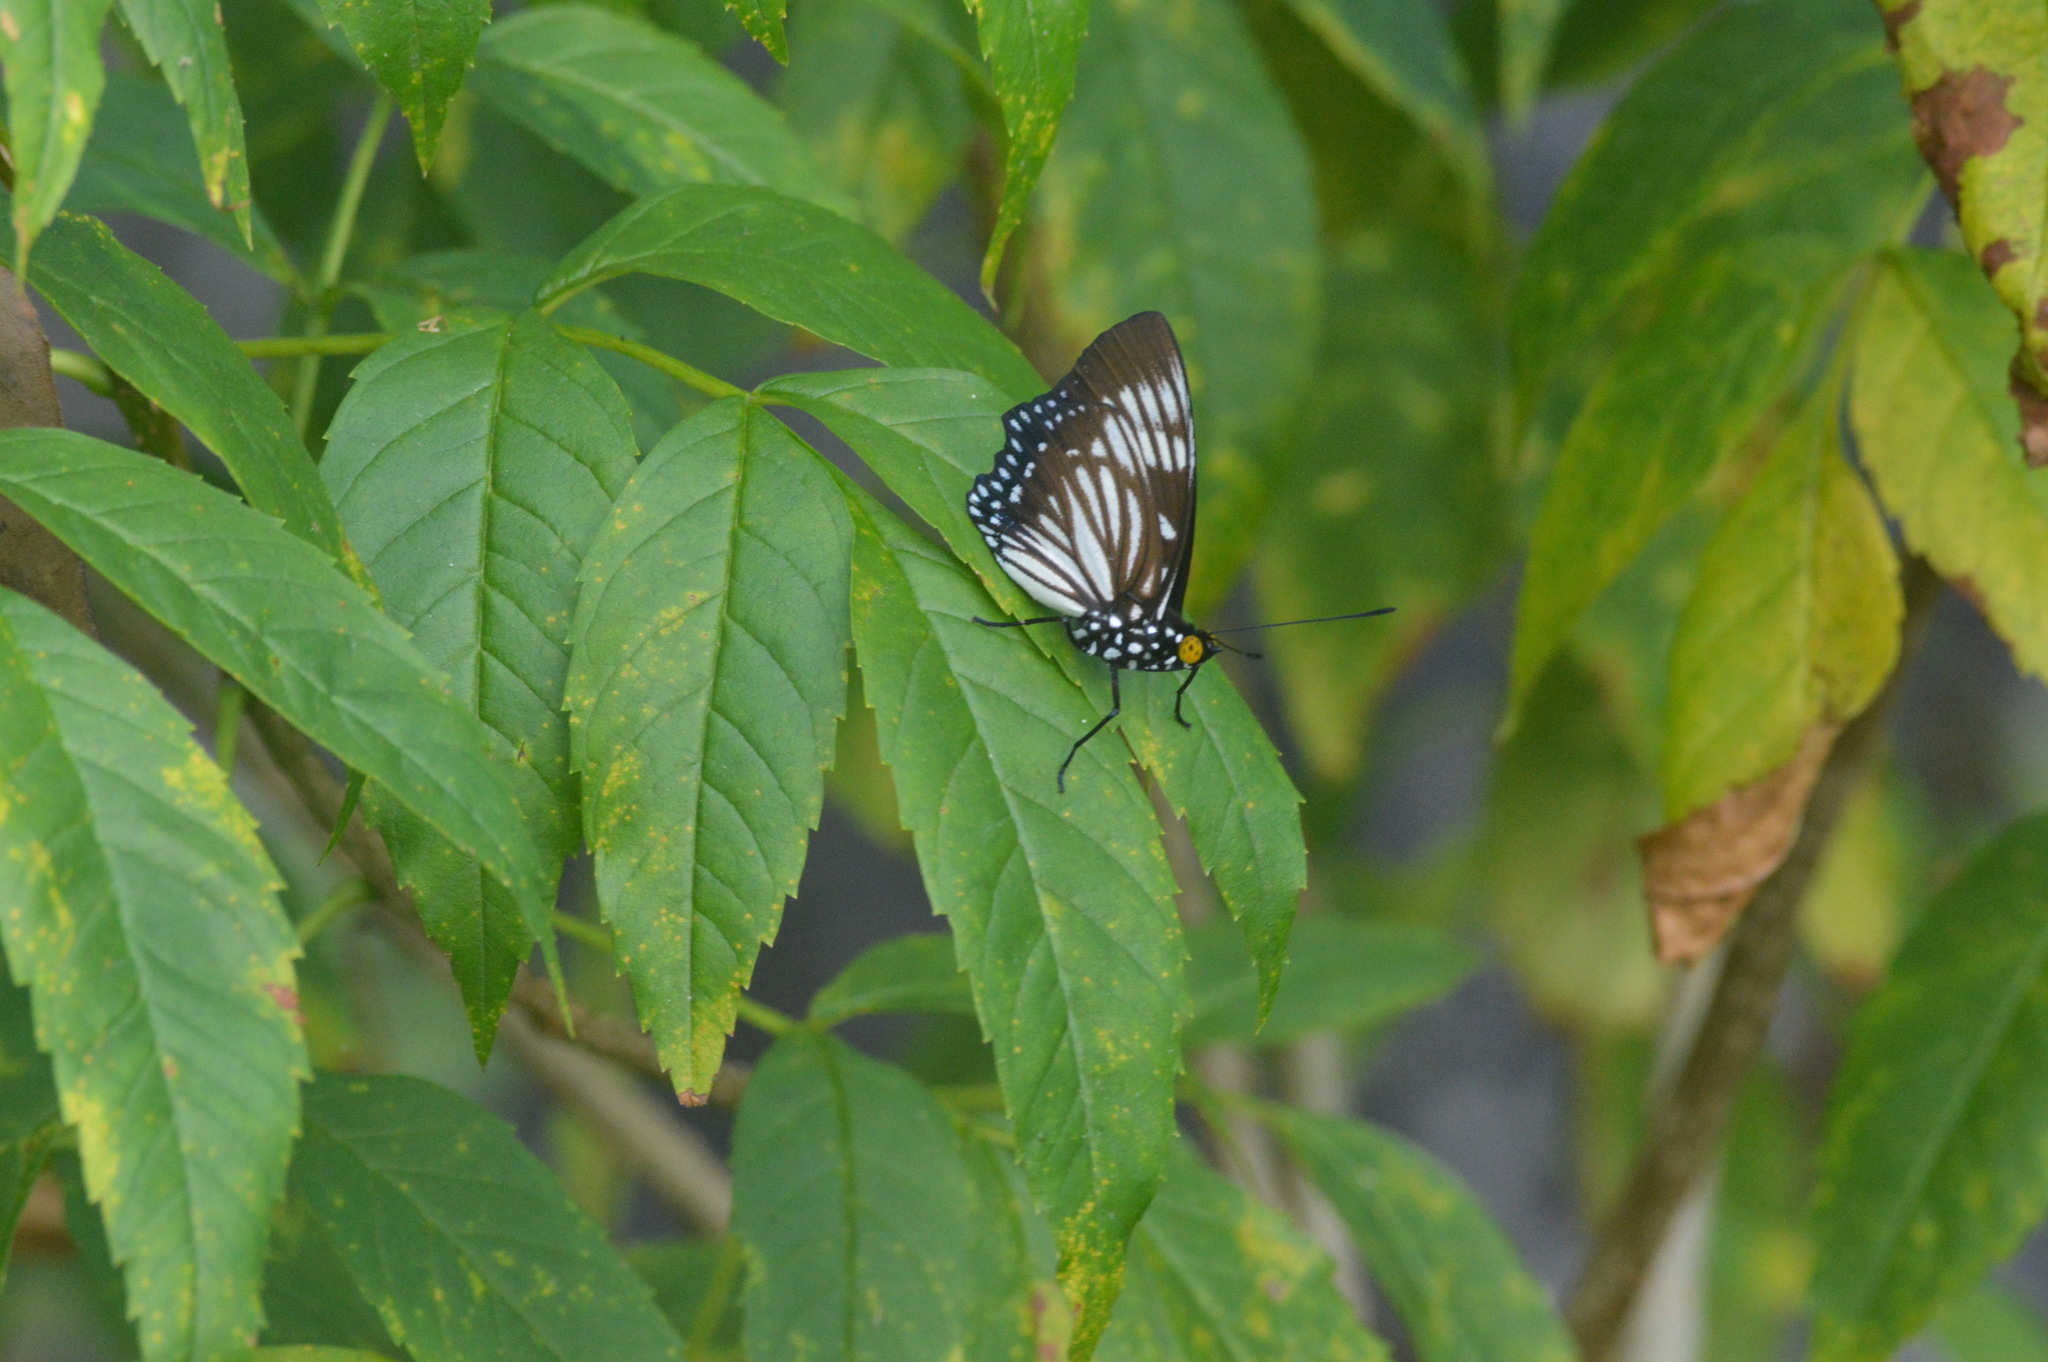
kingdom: Animalia
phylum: Arthropoda
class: Insecta
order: Lepidoptera
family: Nymphalidae
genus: Euripus
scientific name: Euripus nyctelius
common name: Courtesan
